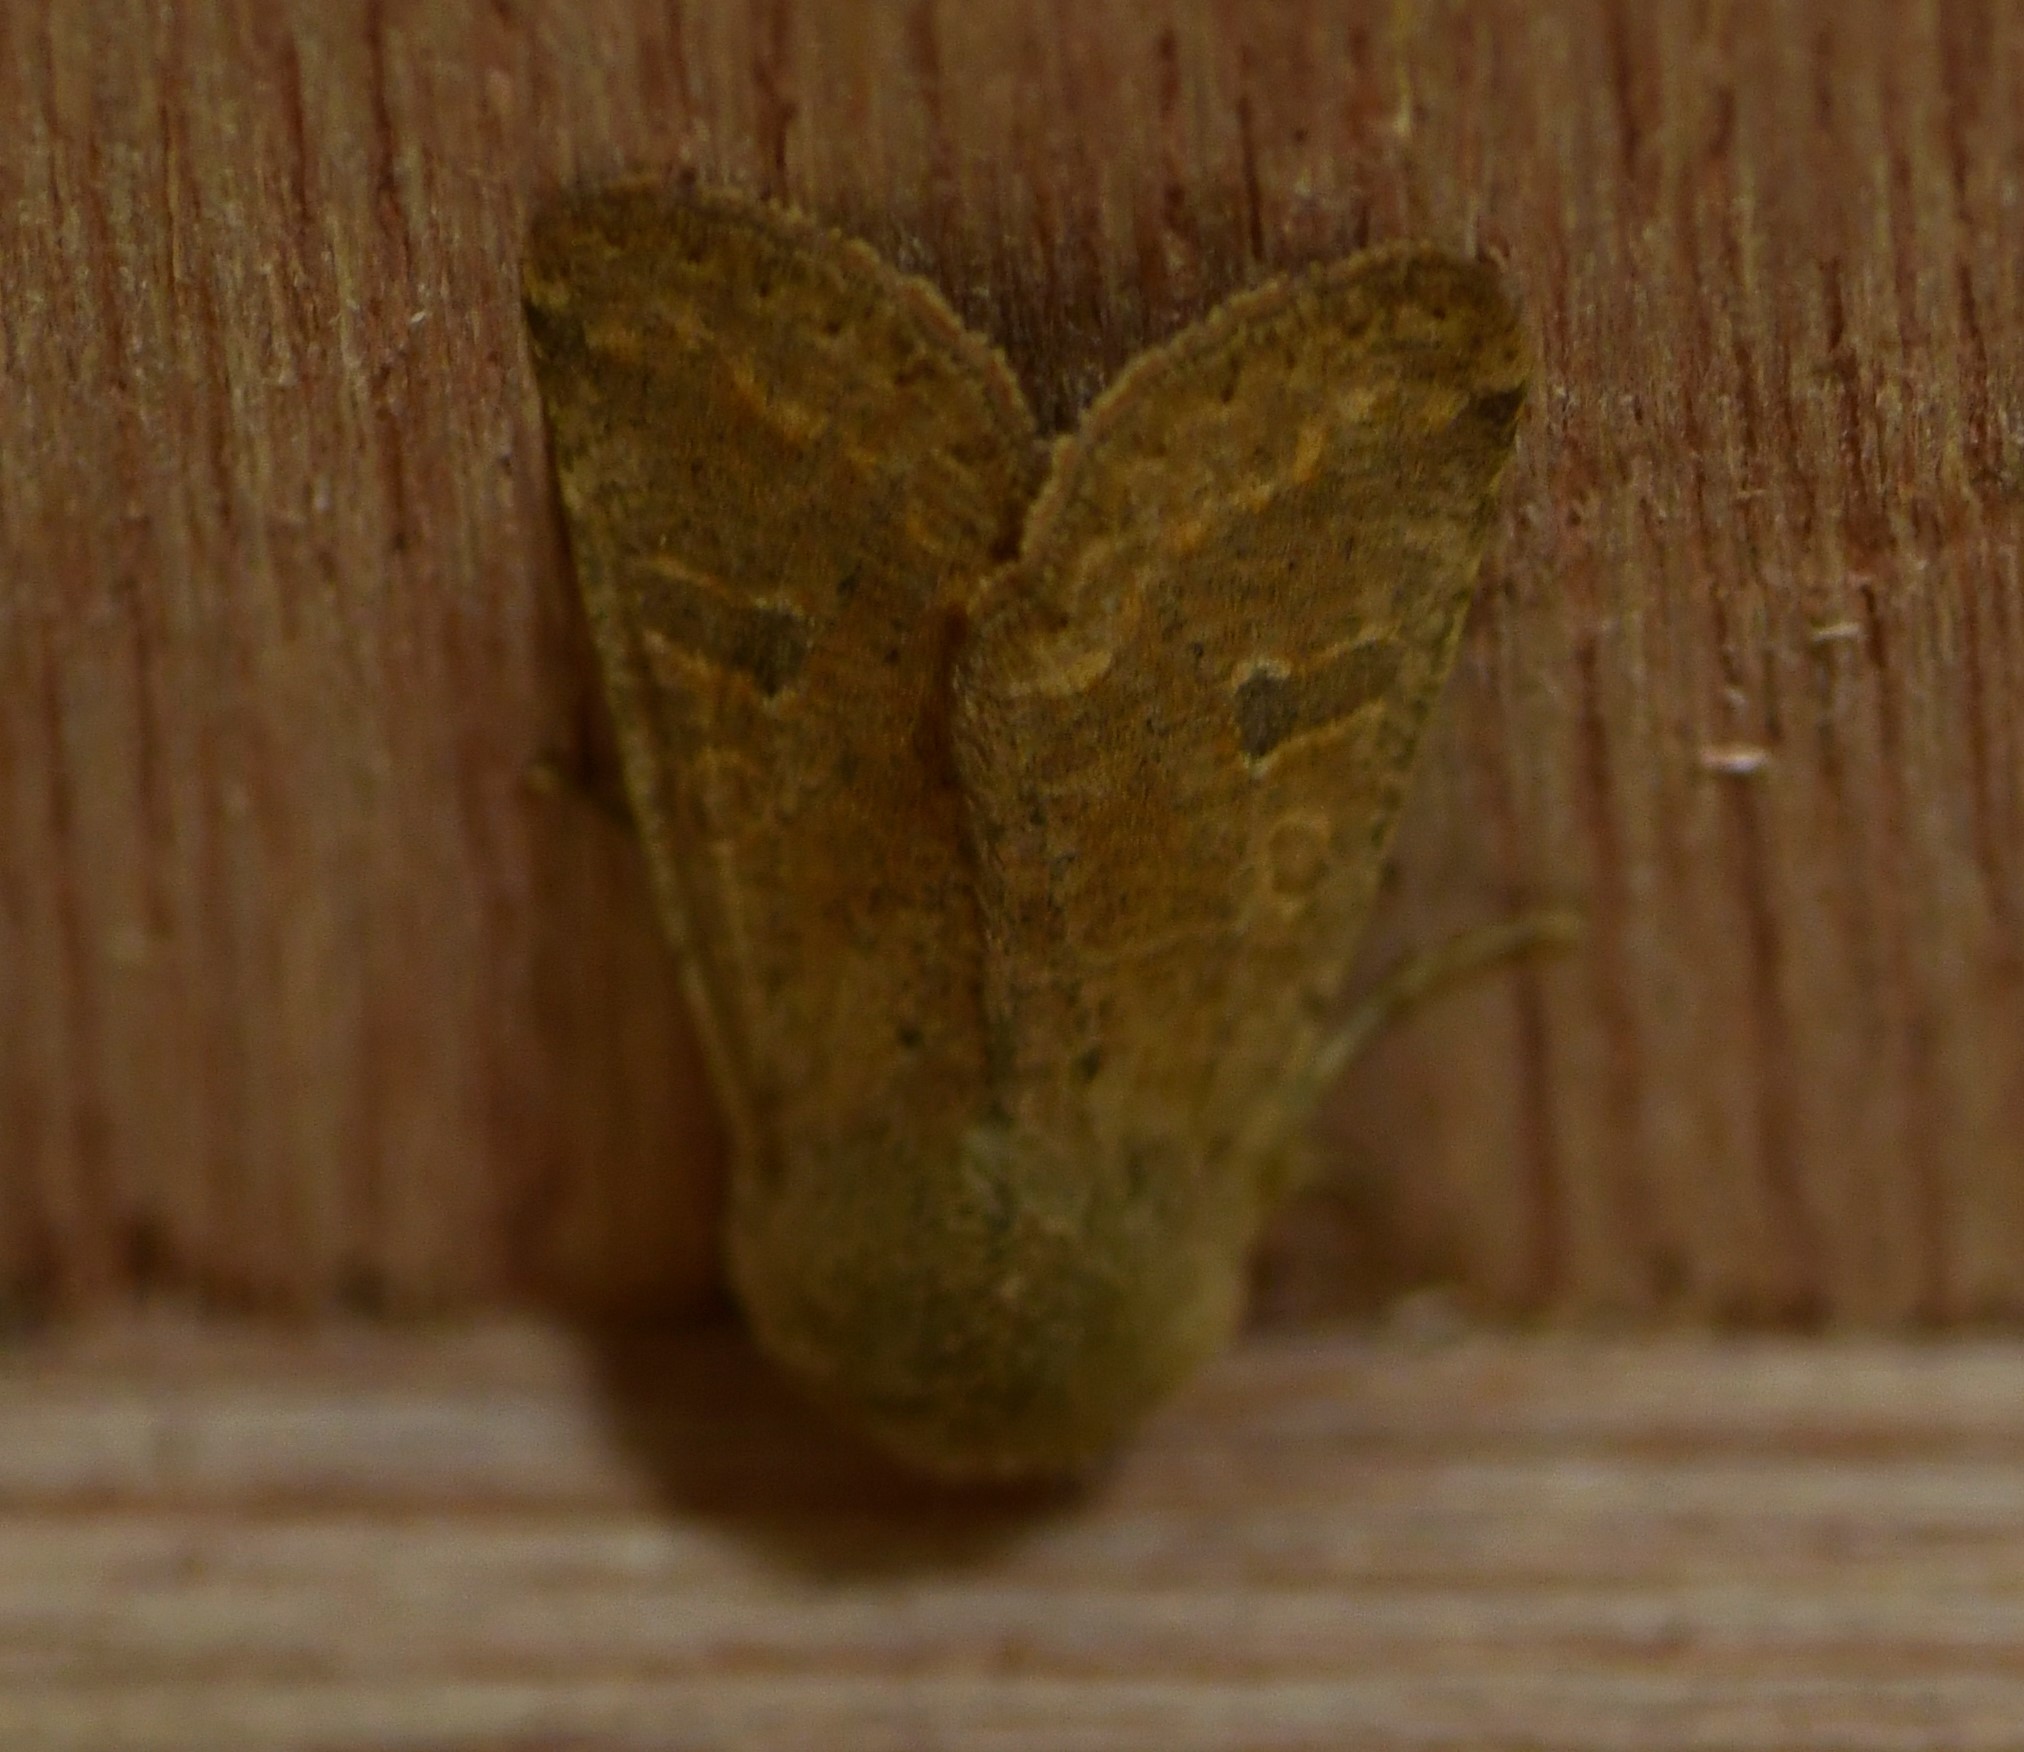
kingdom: Animalia
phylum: Arthropoda
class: Insecta
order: Lepidoptera
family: Noctuidae
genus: Orthosia
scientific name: Orthosia cruda
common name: Small quaker
